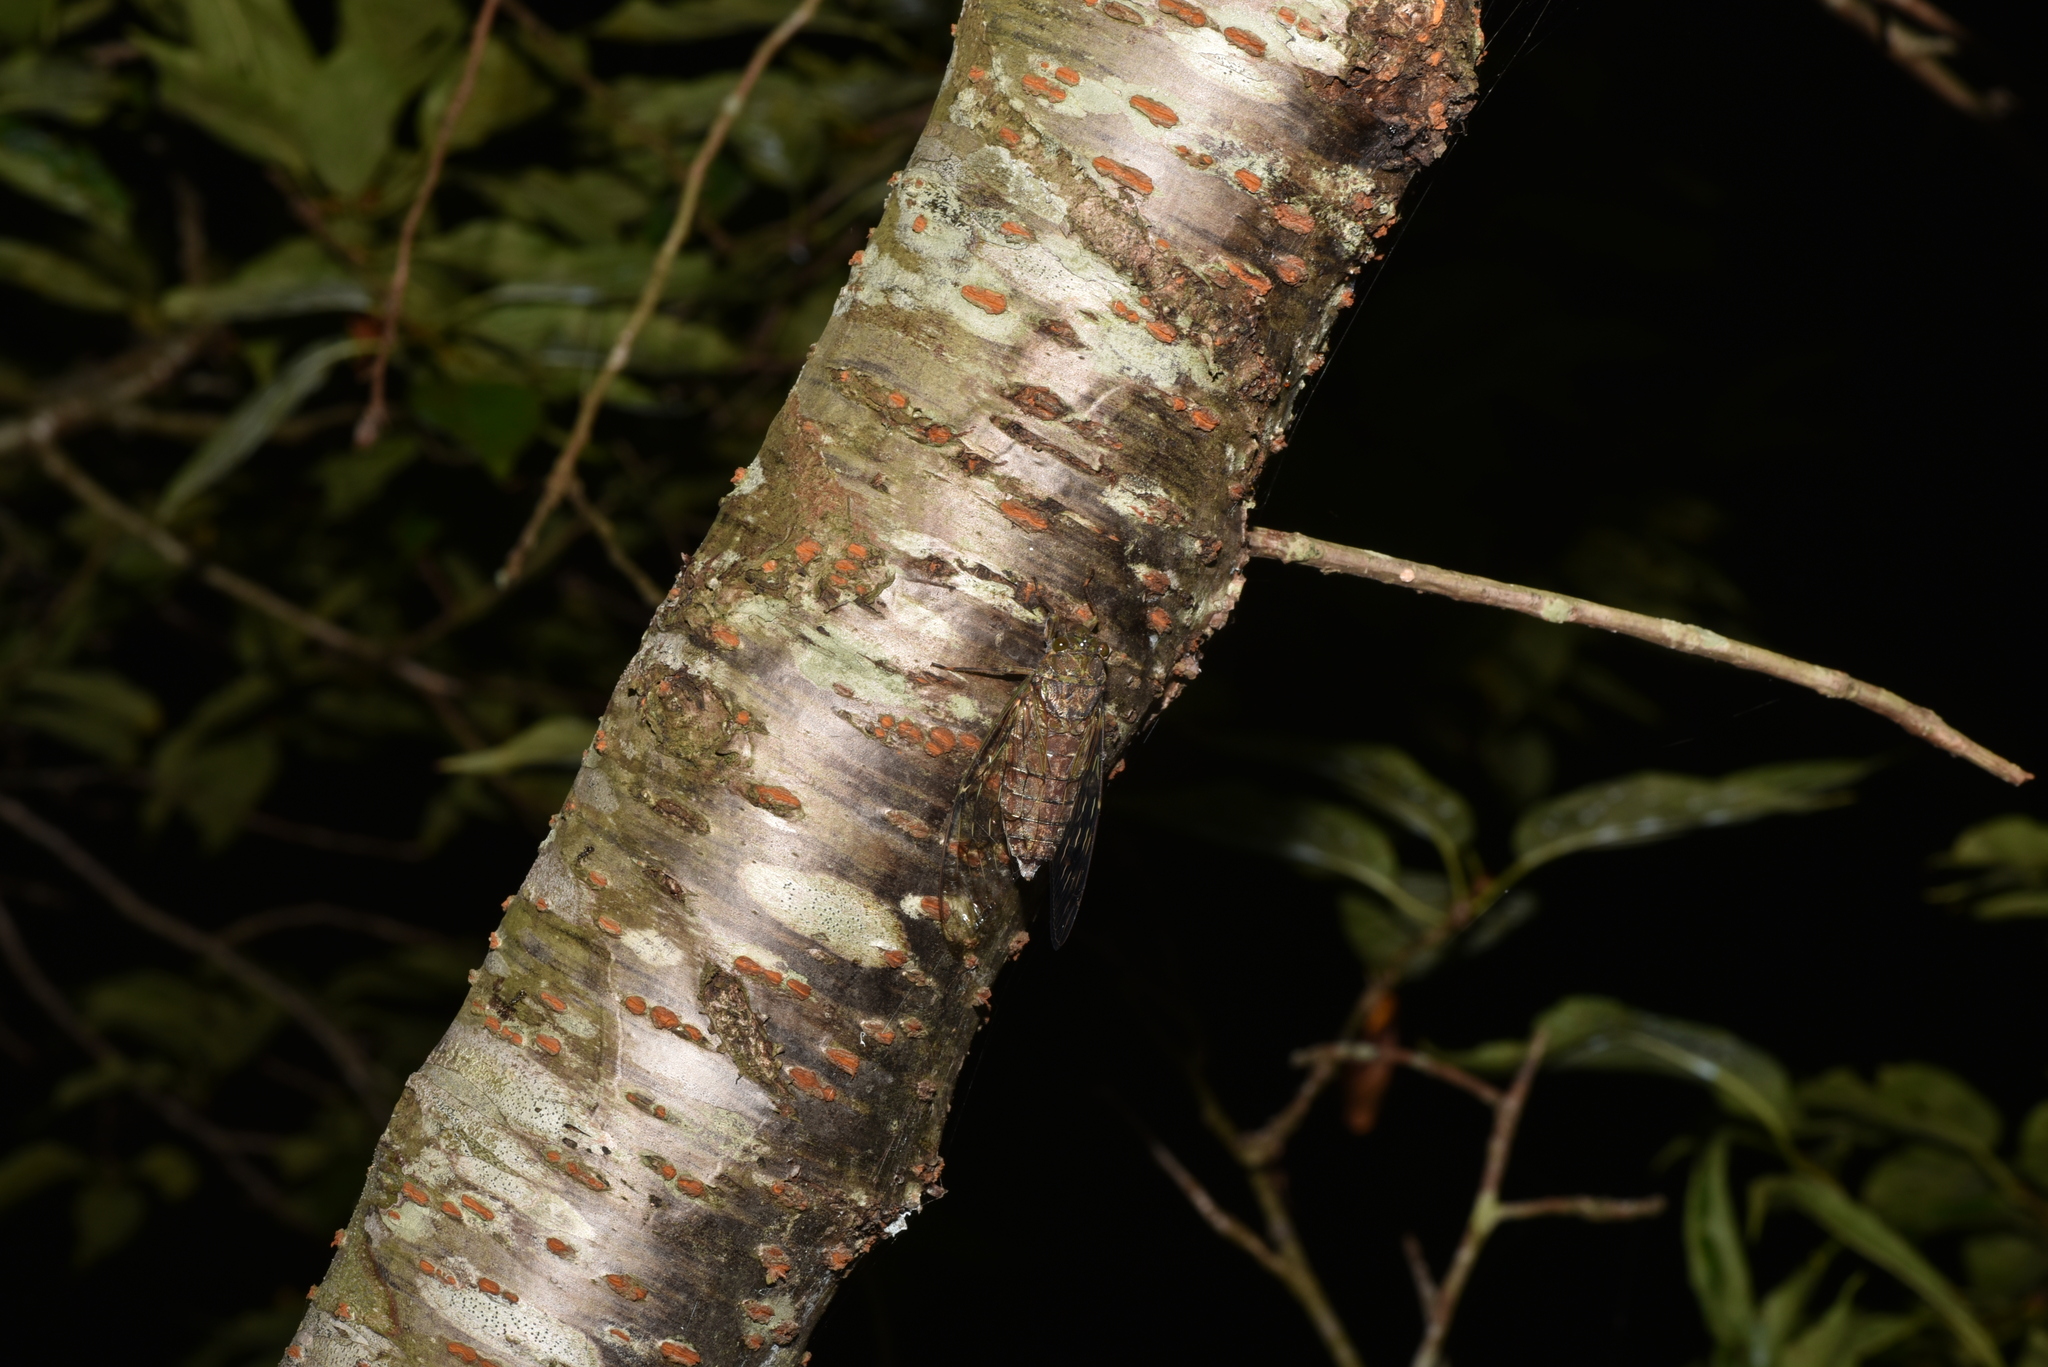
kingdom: Animalia
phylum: Arthropoda
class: Insecta
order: Hemiptera
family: Cicadidae
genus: Pomponia
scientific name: Pomponia yayeyamana
